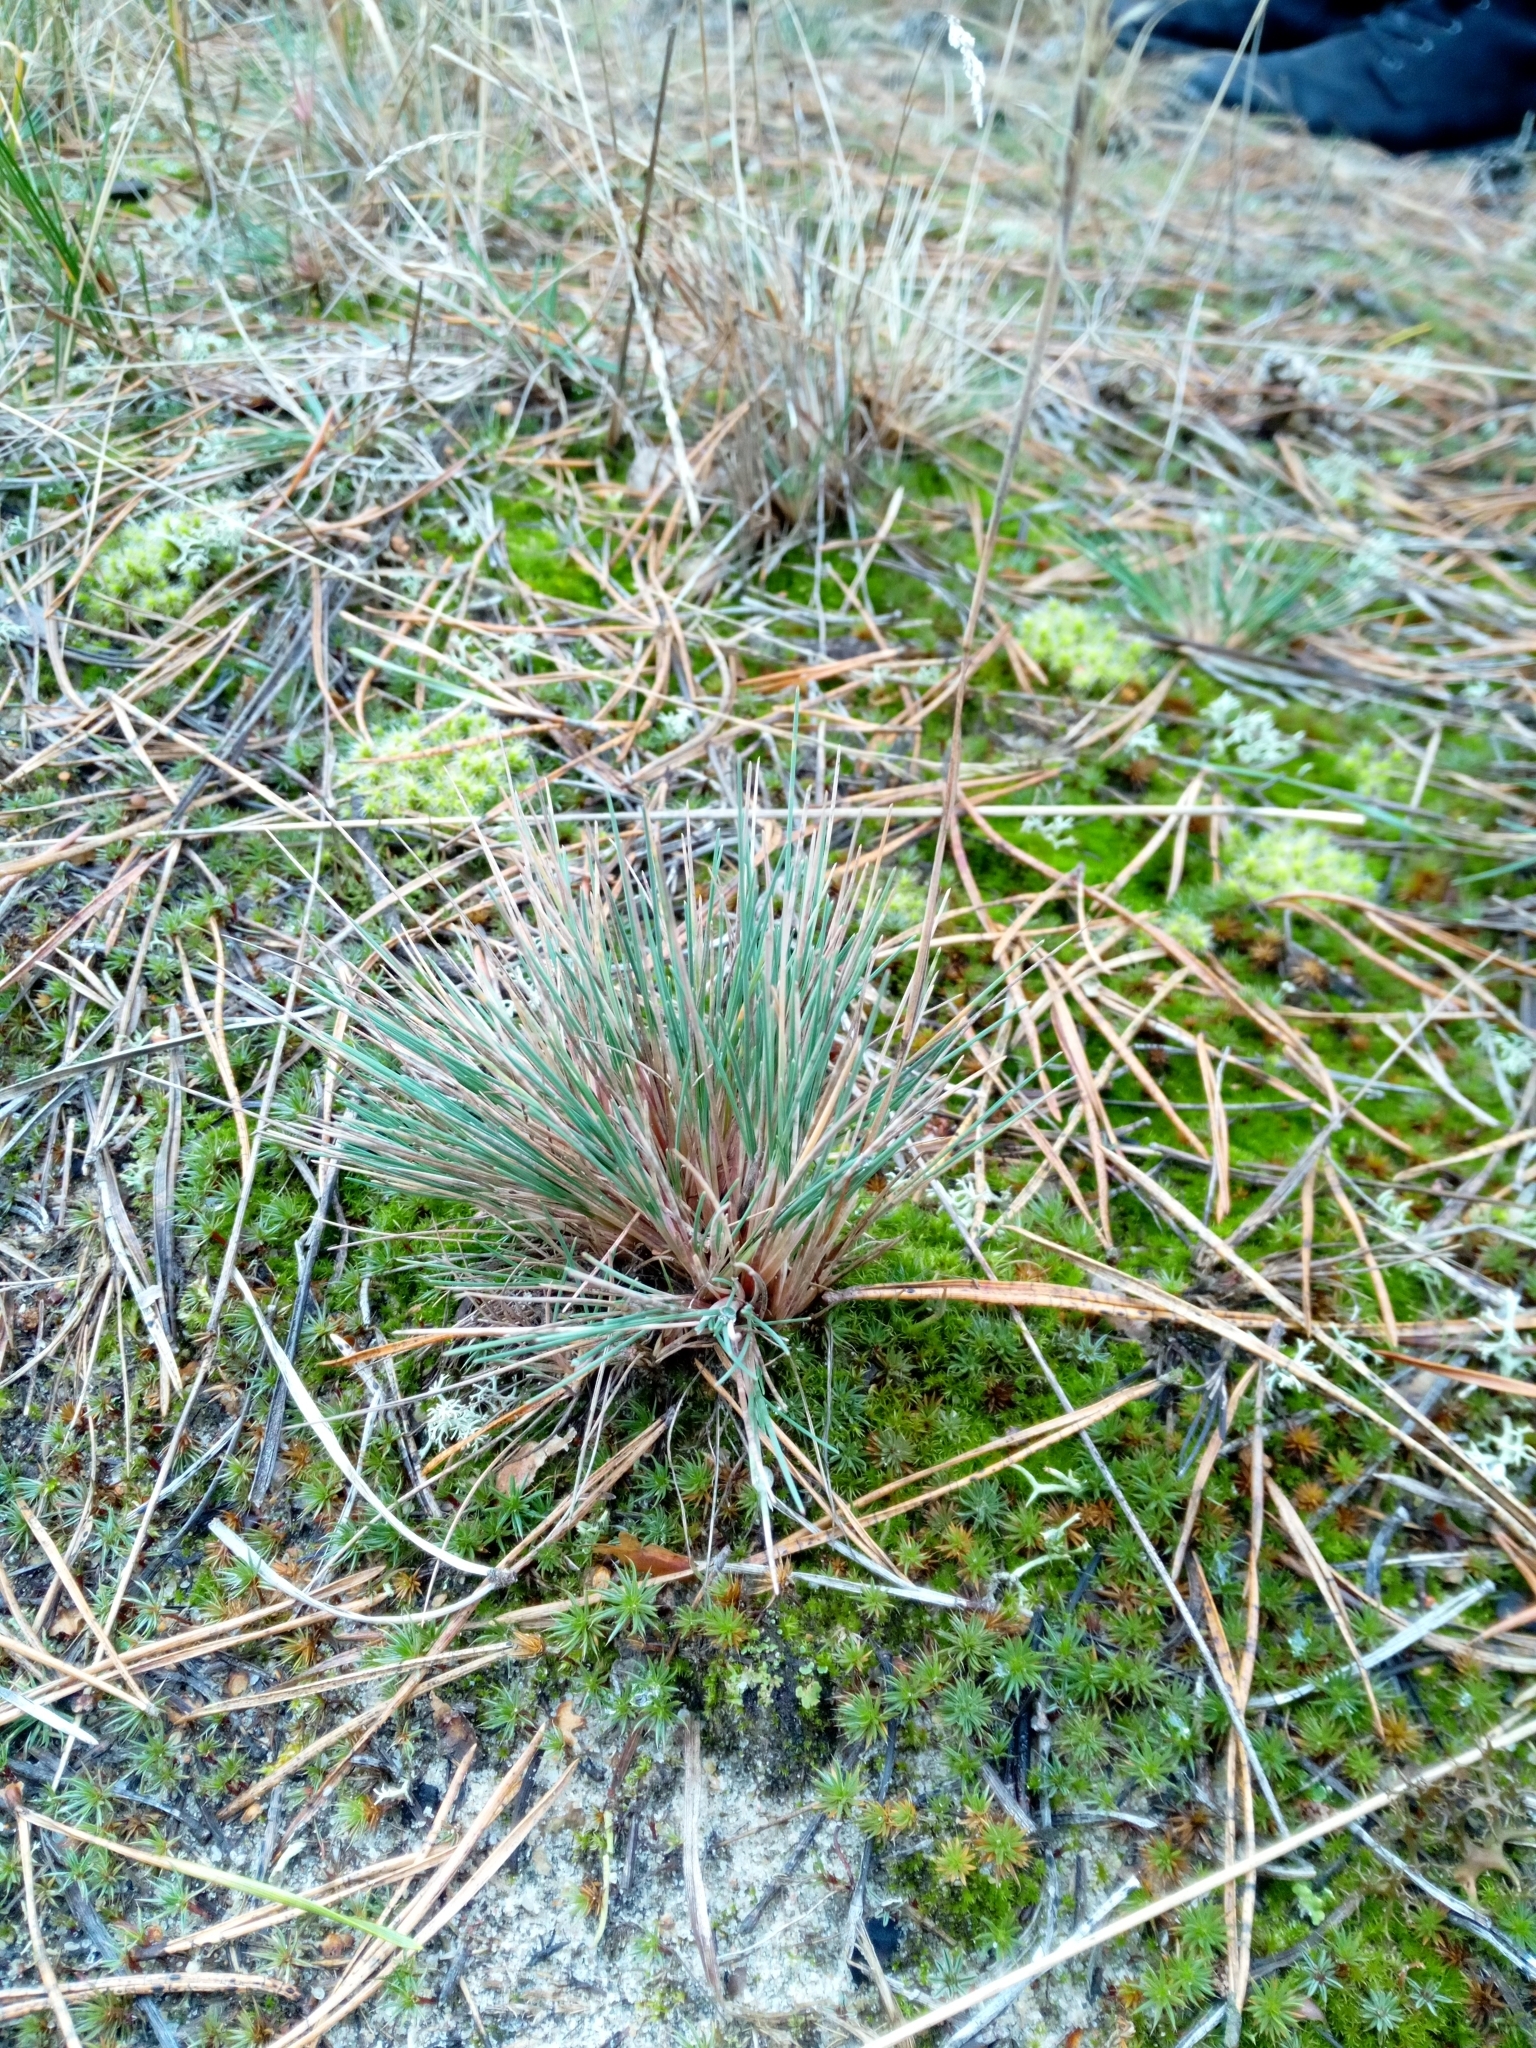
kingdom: Plantae
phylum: Tracheophyta
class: Liliopsida
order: Poales
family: Poaceae
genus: Corynephorus
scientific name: Corynephorus canescens
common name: Grey hair-grass
